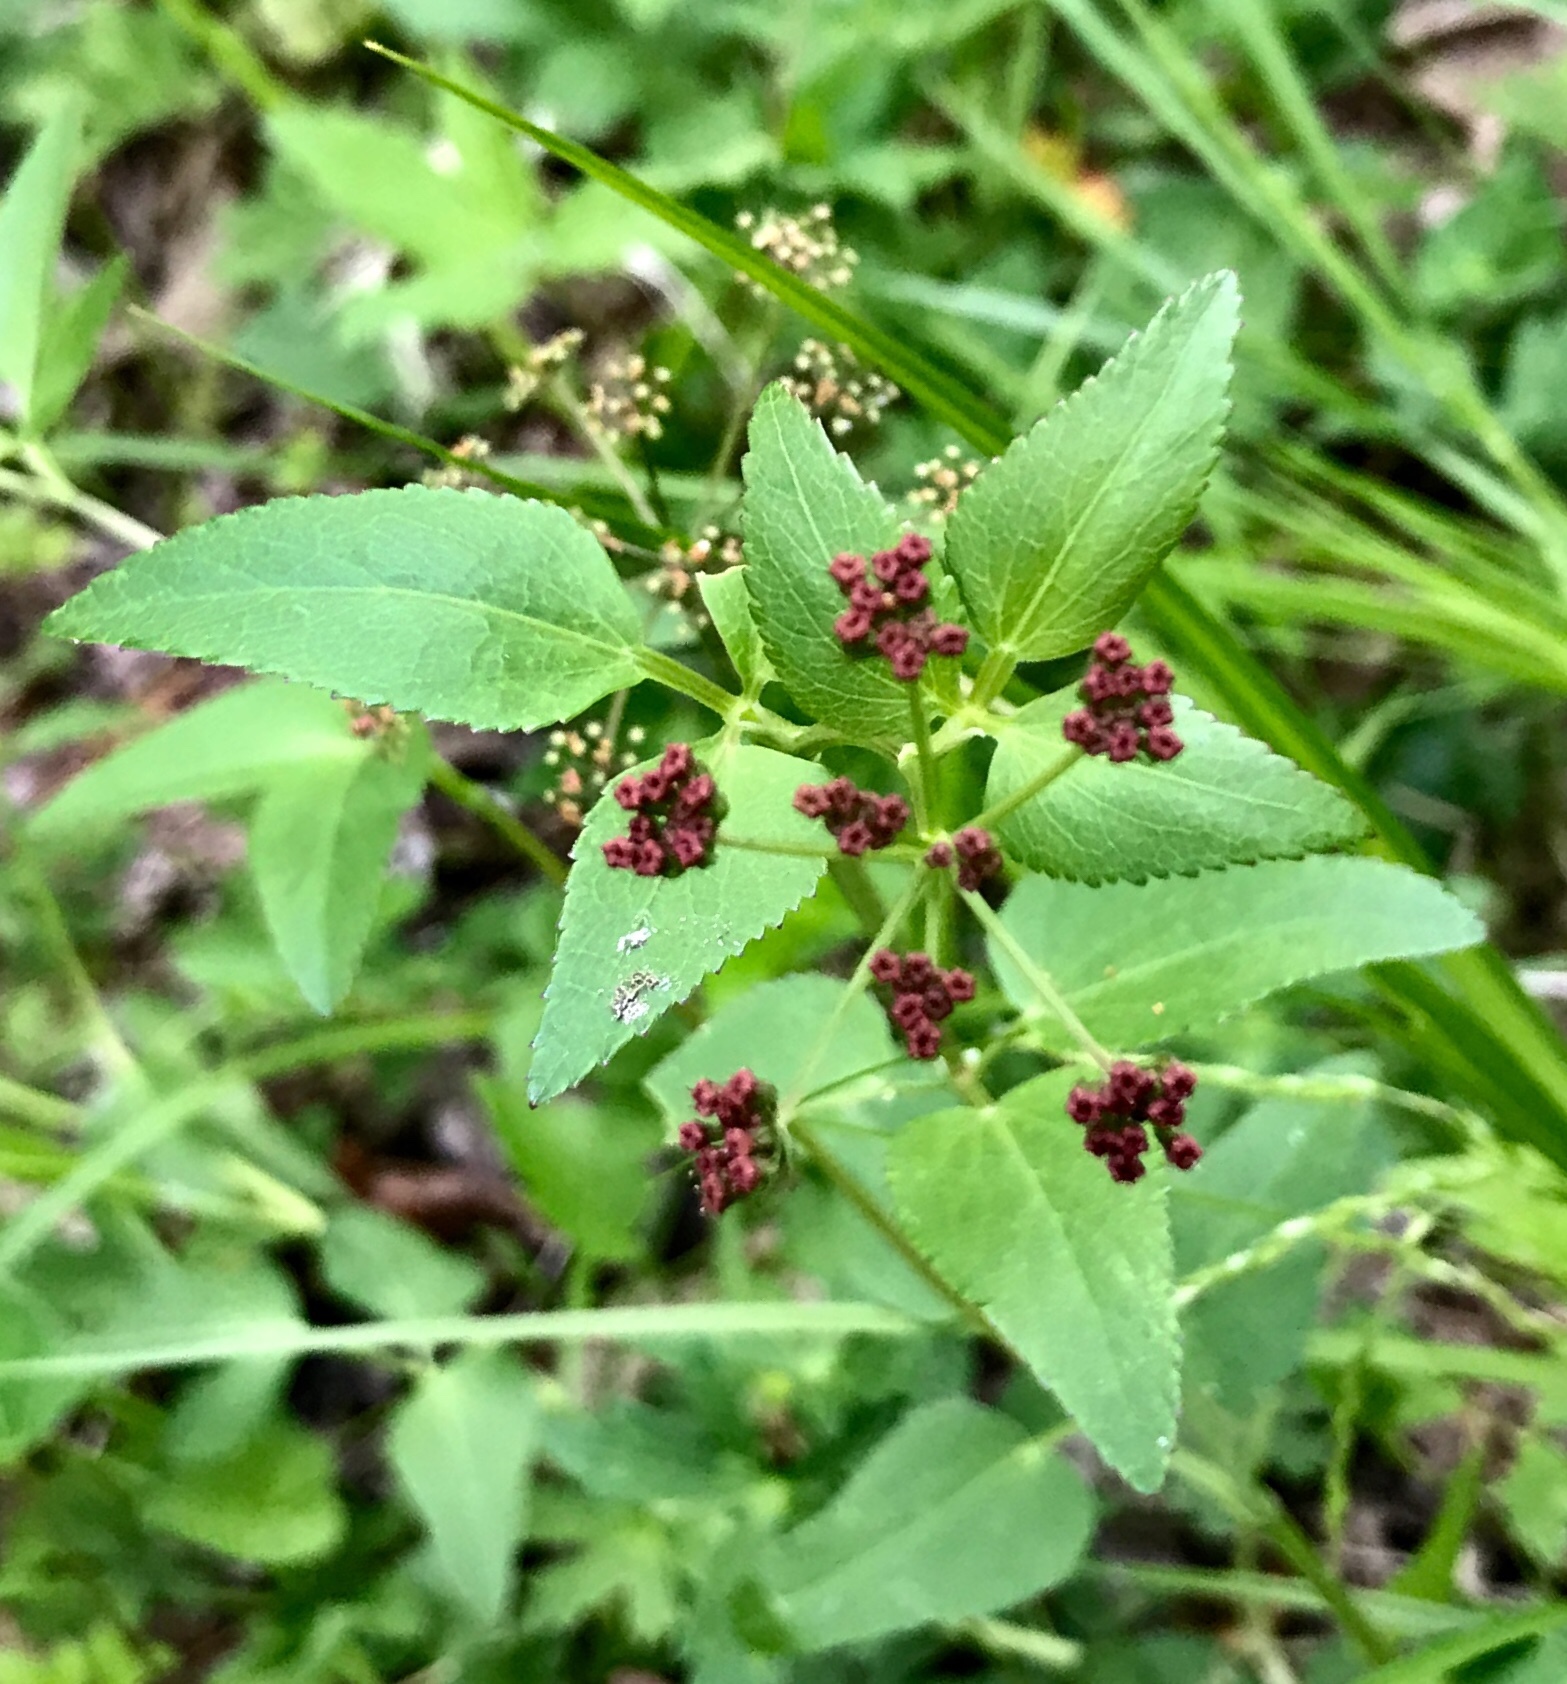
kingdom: Plantae
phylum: Tracheophyta
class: Magnoliopsida
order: Apiales
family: Apiaceae
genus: Thaspium
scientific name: Thaspium trifoliatum
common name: Purple meadow-parsnip
